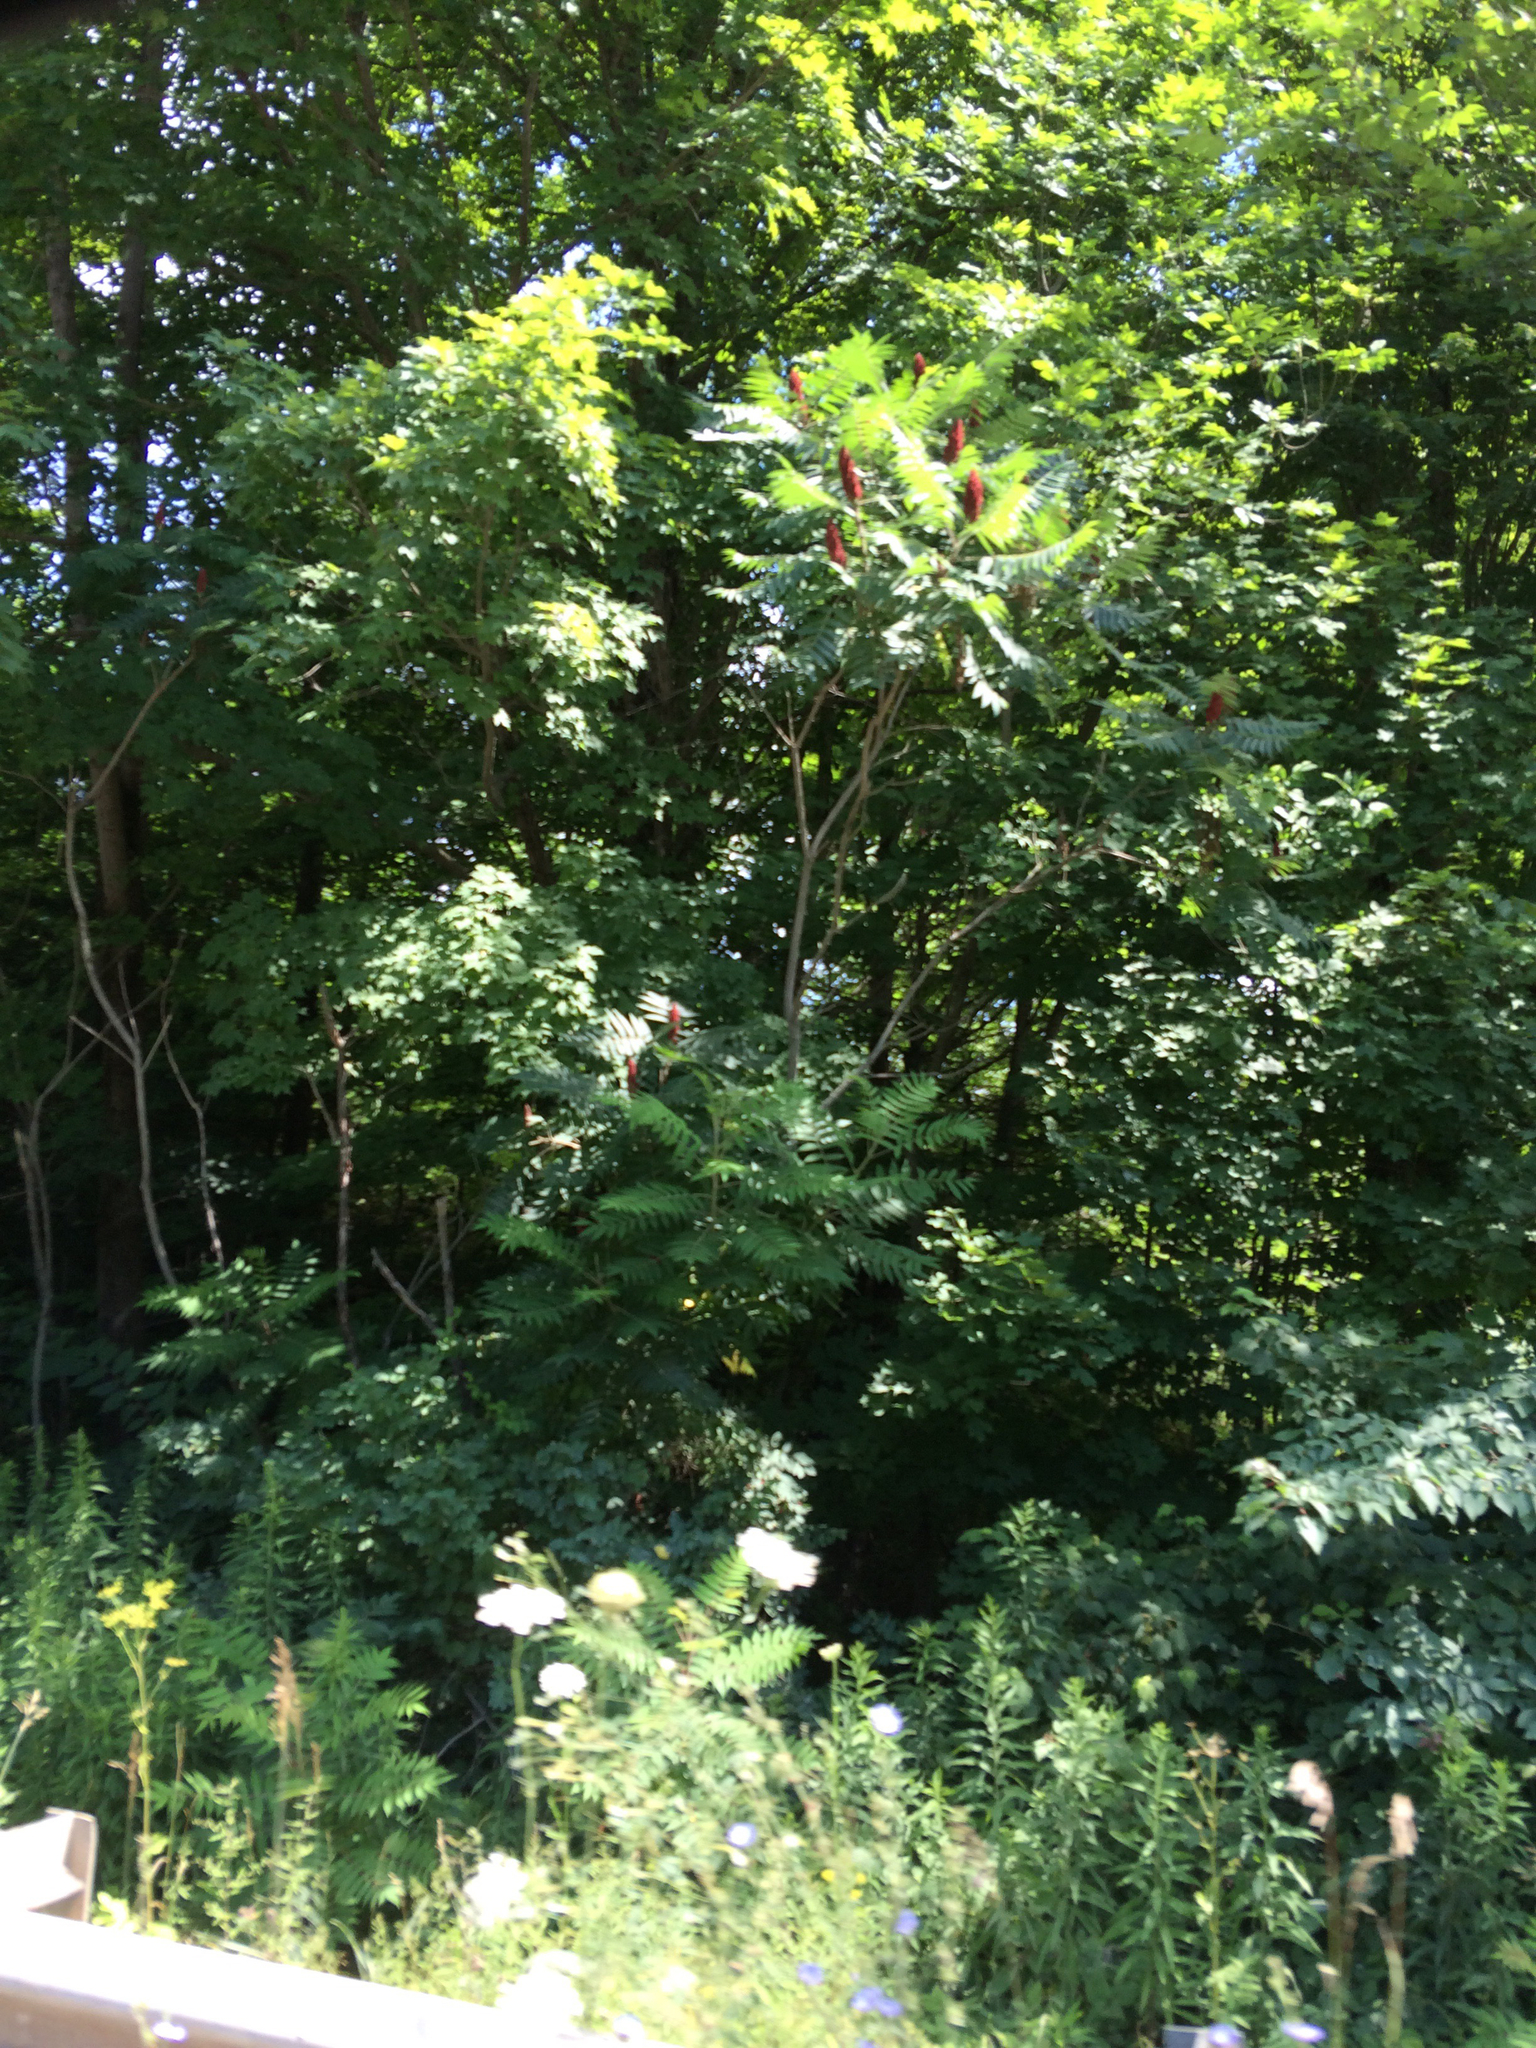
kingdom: Plantae
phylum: Tracheophyta
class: Magnoliopsida
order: Sapindales
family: Anacardiaceae
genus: Rhus
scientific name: Rhus typhina
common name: Staghorn sumac
